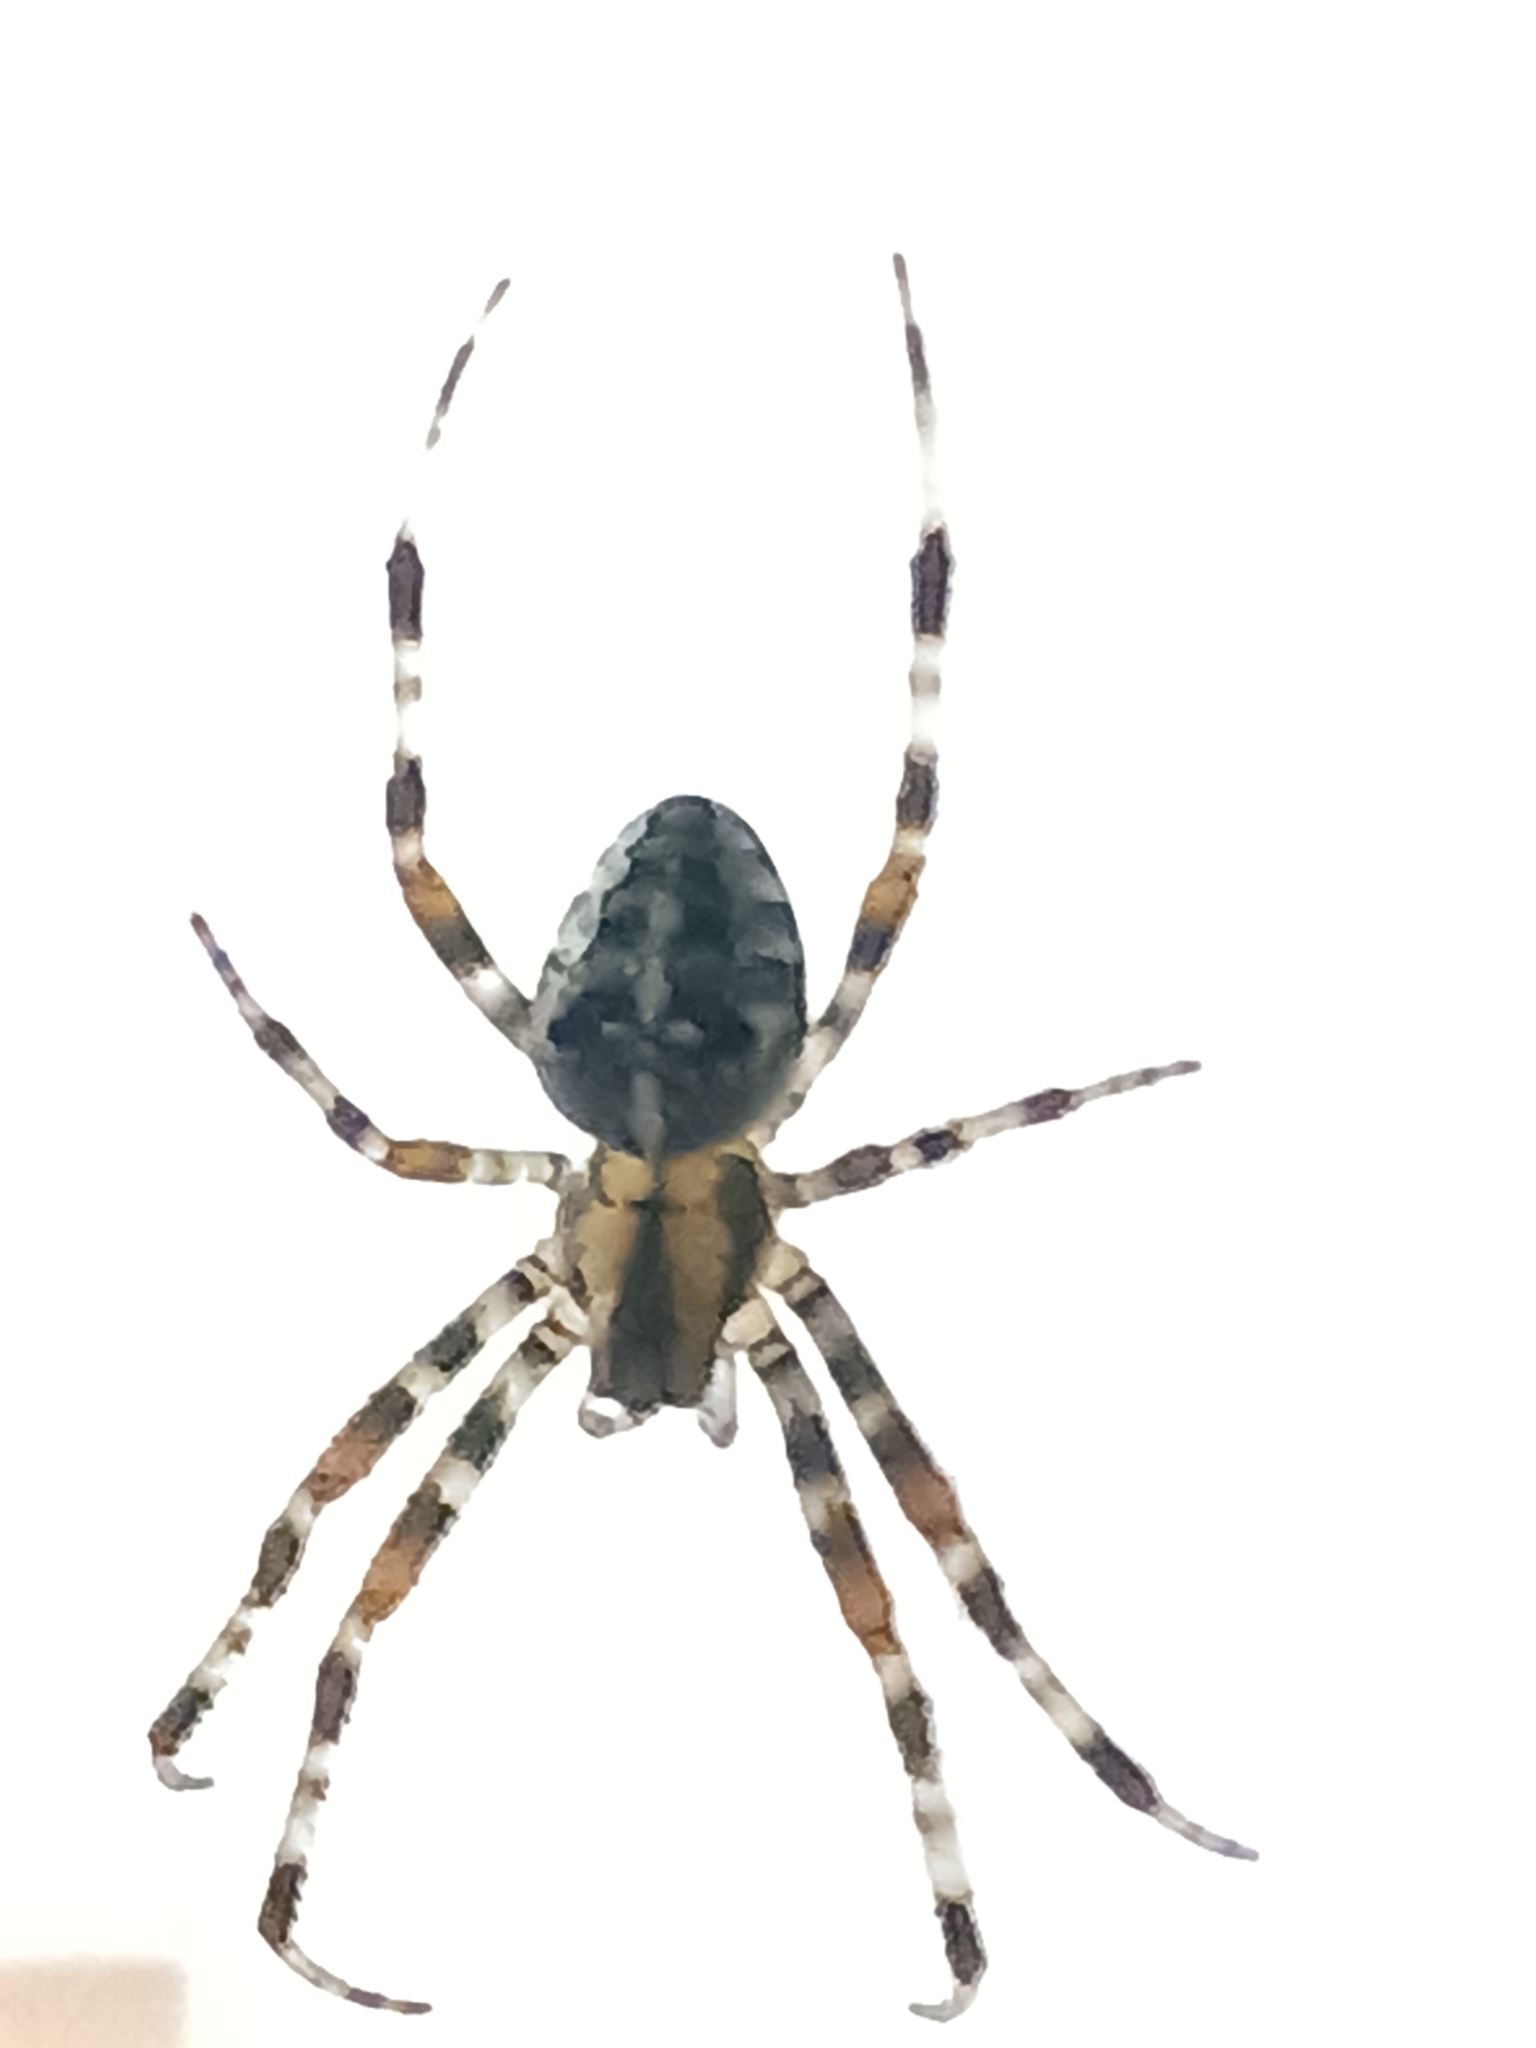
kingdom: Animalia
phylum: Arthropoda
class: Arachnida
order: Araneae
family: Araneidae
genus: Araneus
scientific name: Araneus diadematus
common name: Cross orbweaver
